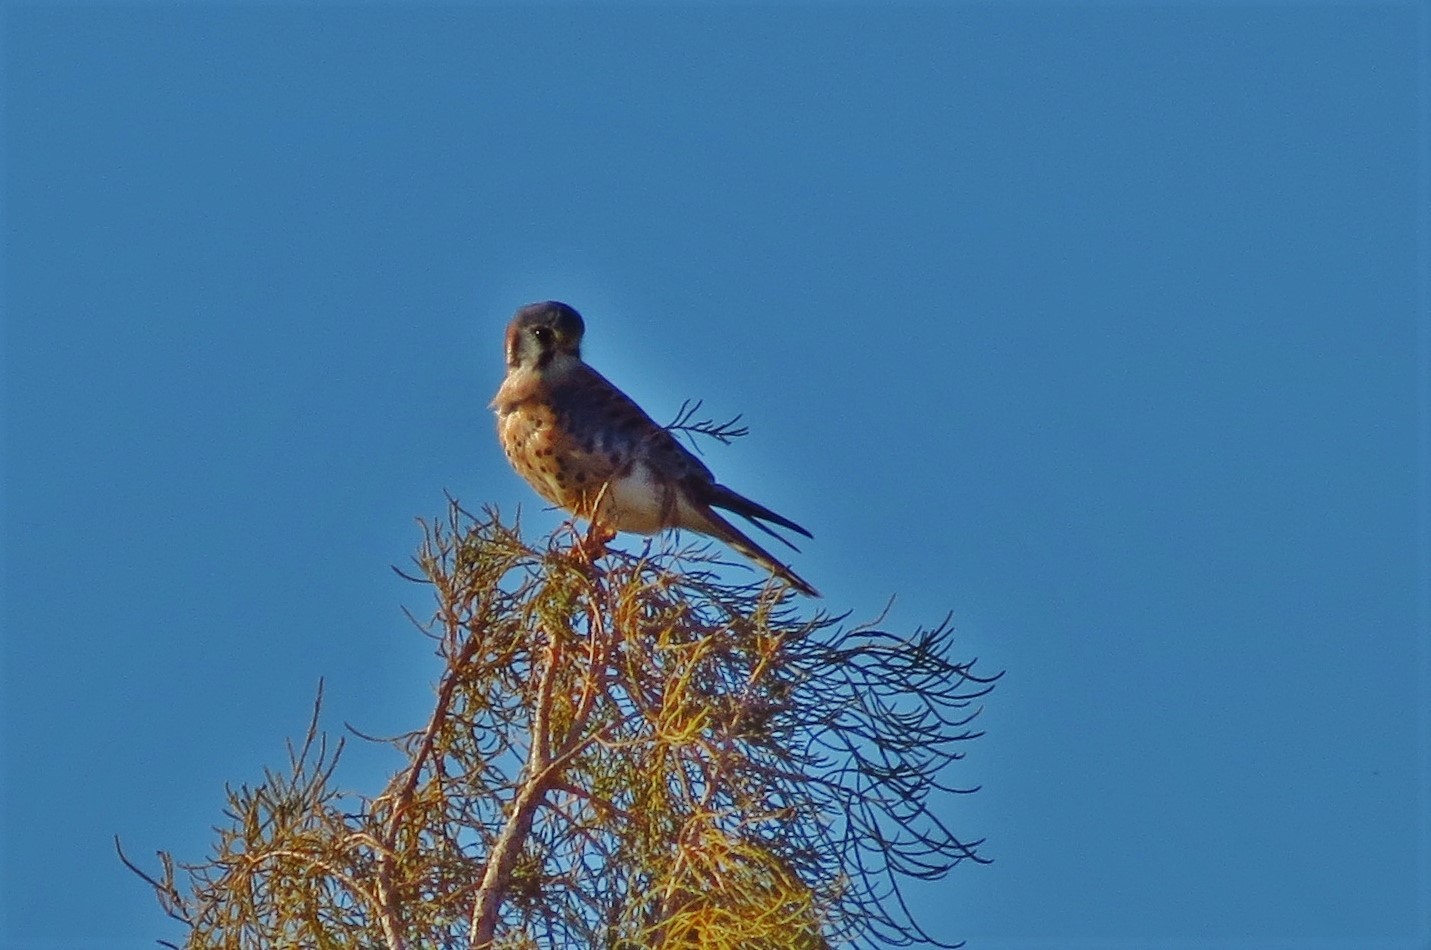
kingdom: Animalia
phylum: Chordata
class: Aves
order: Falconiformes
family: Falconidae
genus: Falco
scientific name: Falco sparverius
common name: American kestrel
